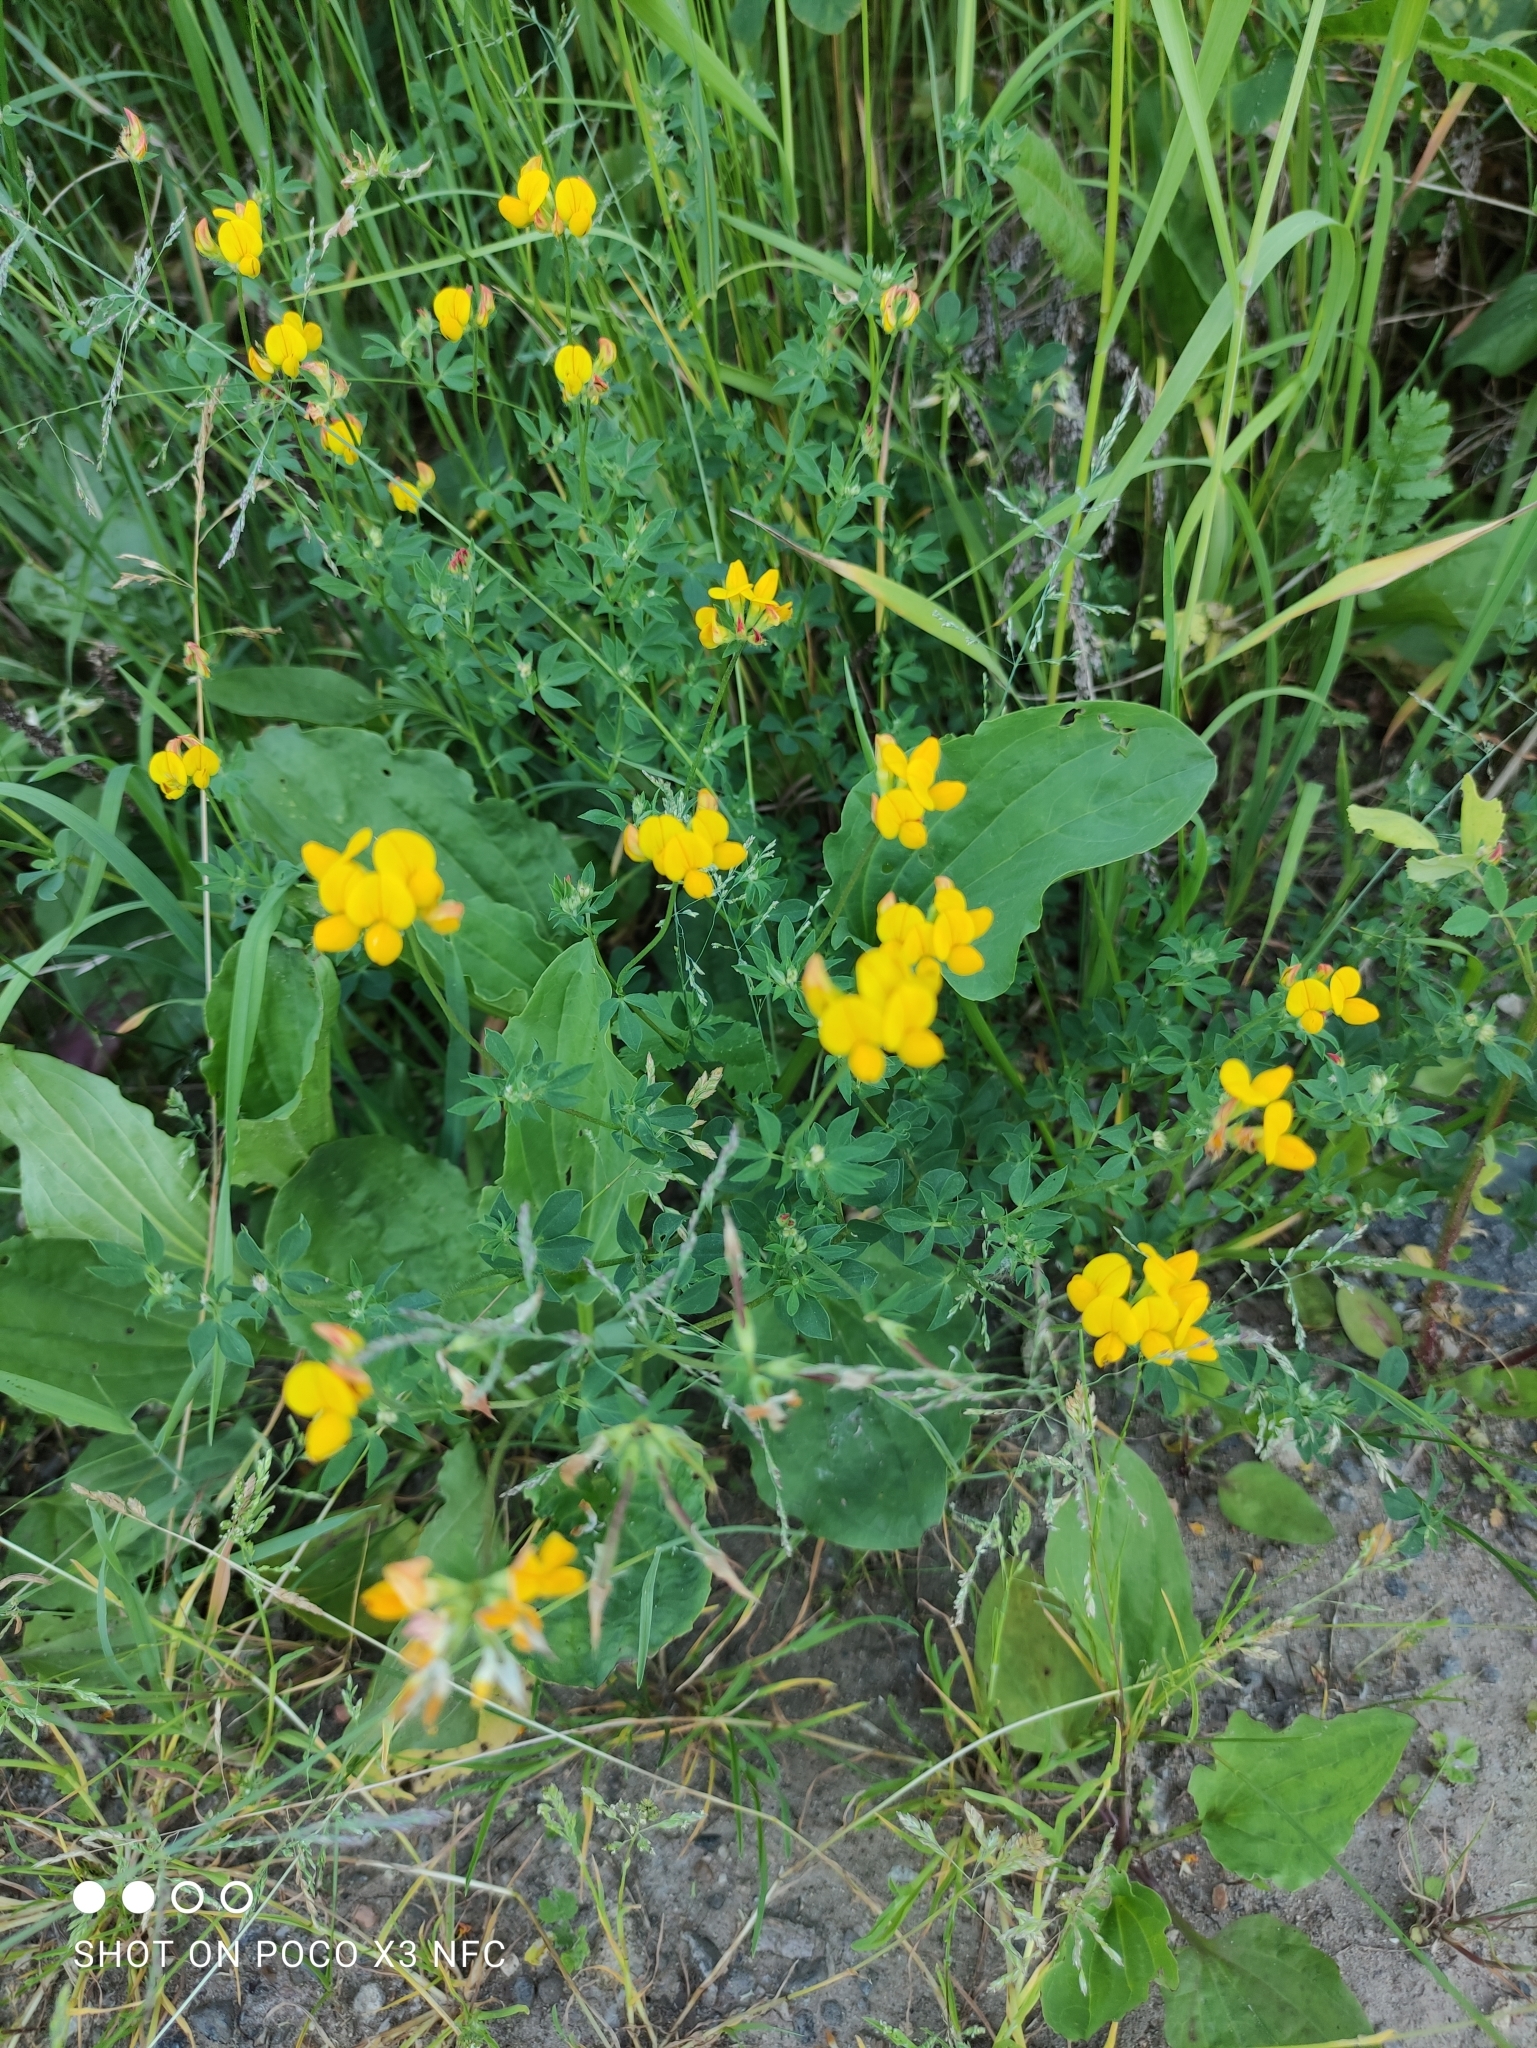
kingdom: Plantae
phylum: Tracheophyta
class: Magnoliopsida
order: Fabales
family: Fabaceae
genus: Lotus
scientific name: Lotus corniculatus
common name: Common bird's-foot-trefoil
